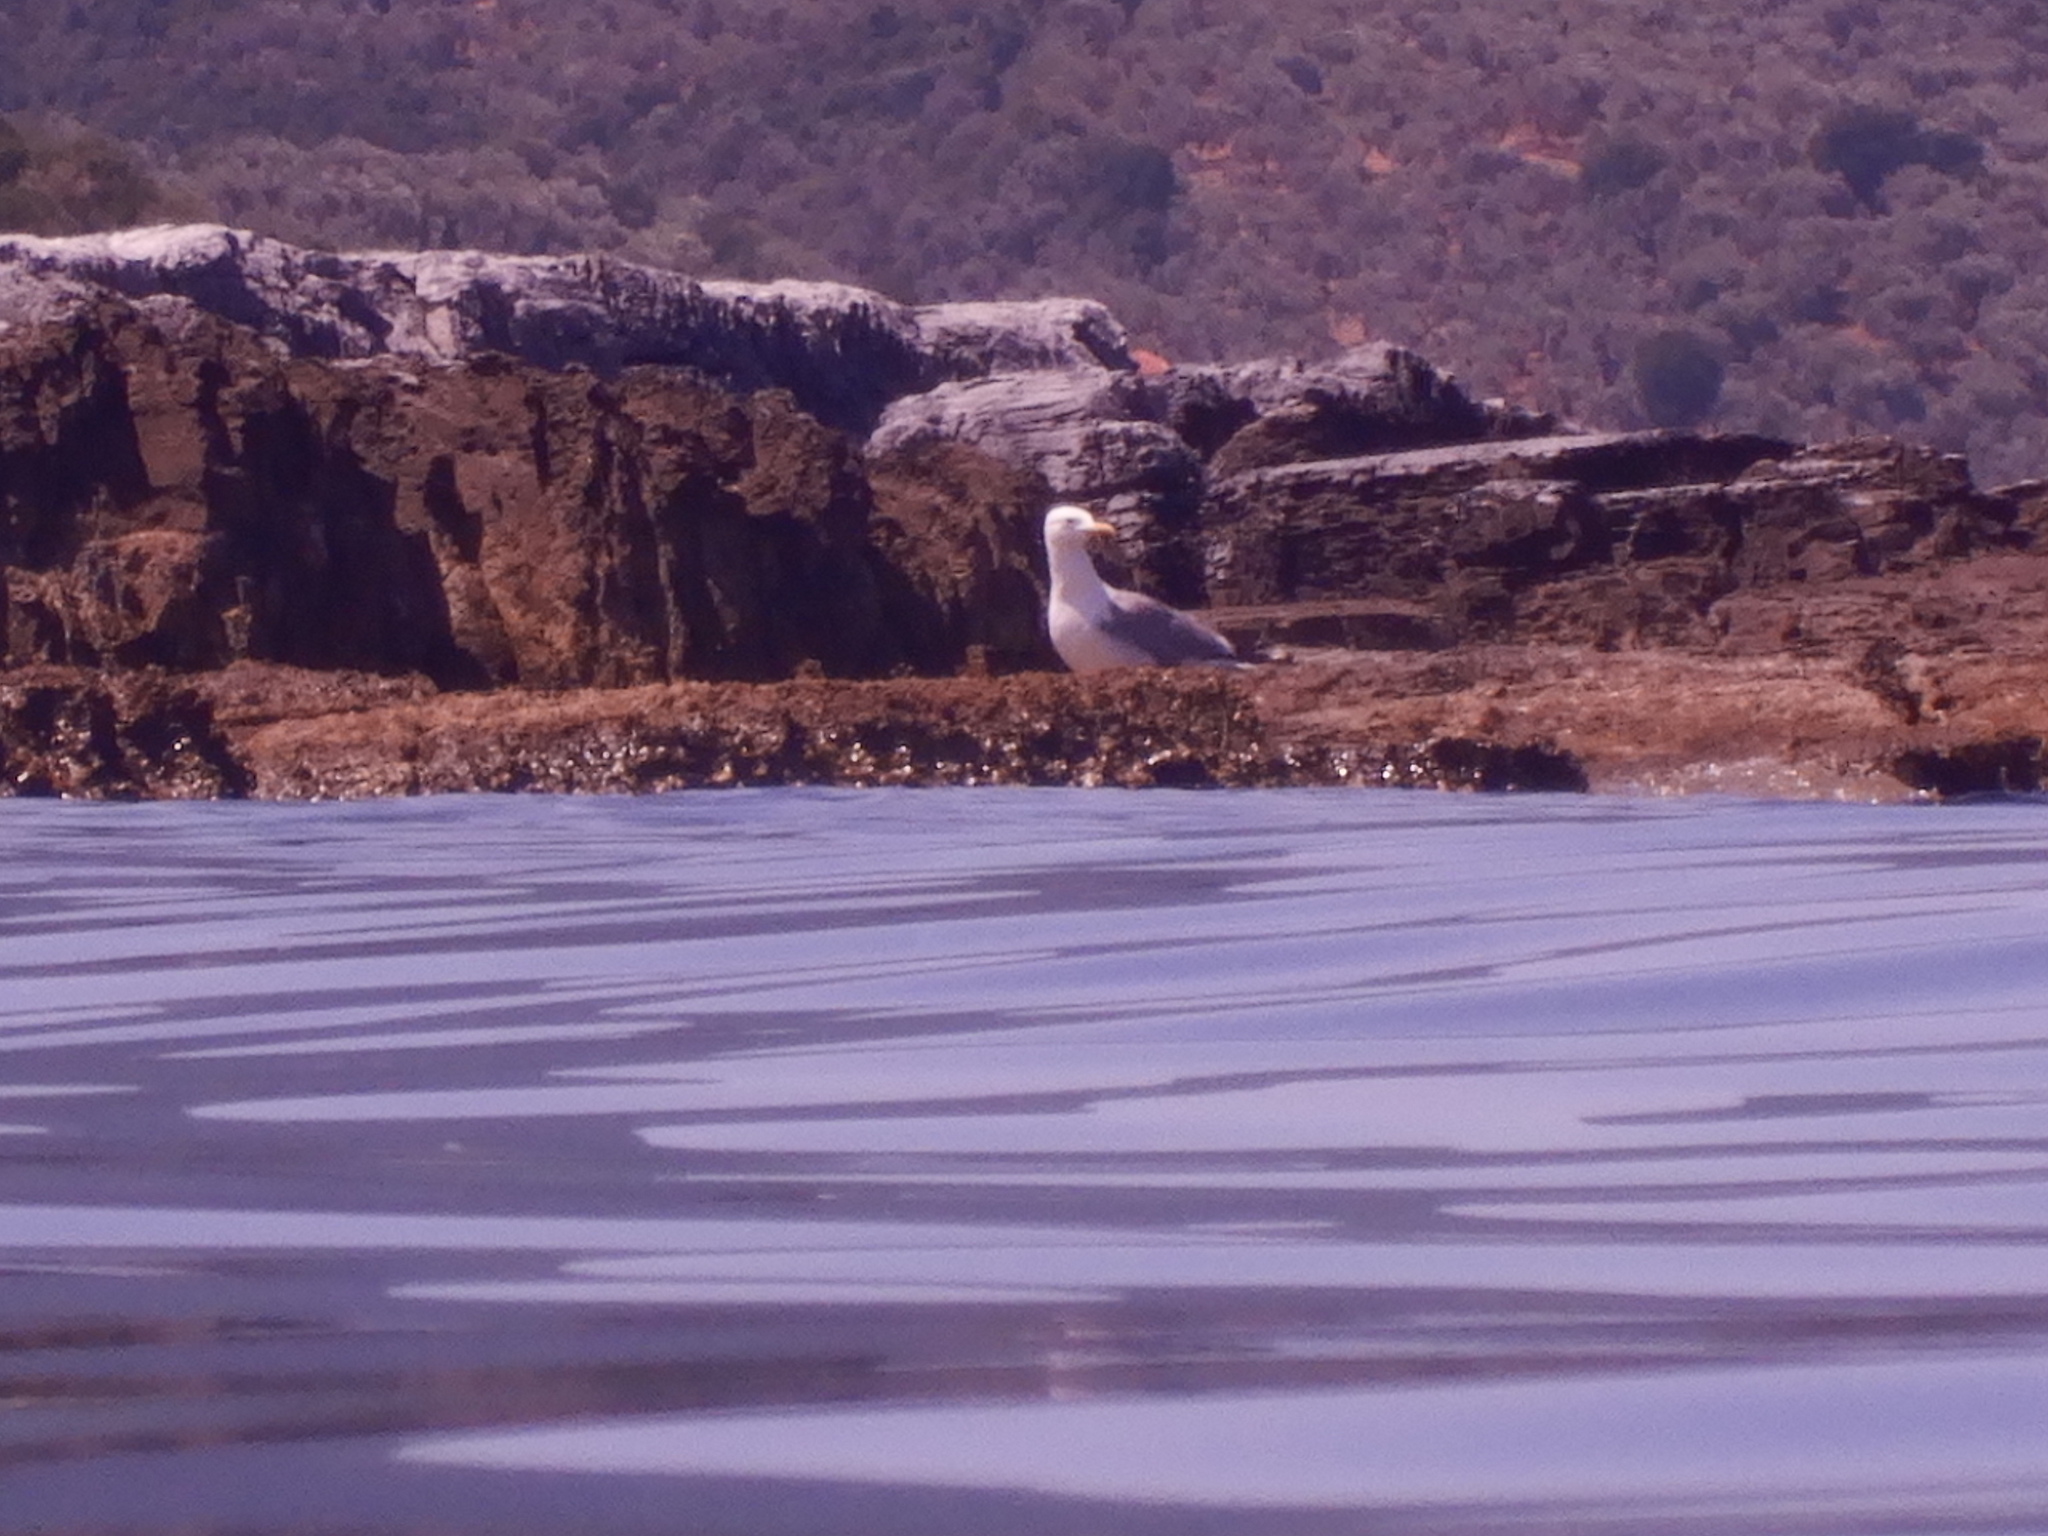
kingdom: Animalia
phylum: Chordata
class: Aves
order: Charadriiformes
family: Laridae
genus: Larus
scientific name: Larus michahellis
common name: Yellow-legged gull
